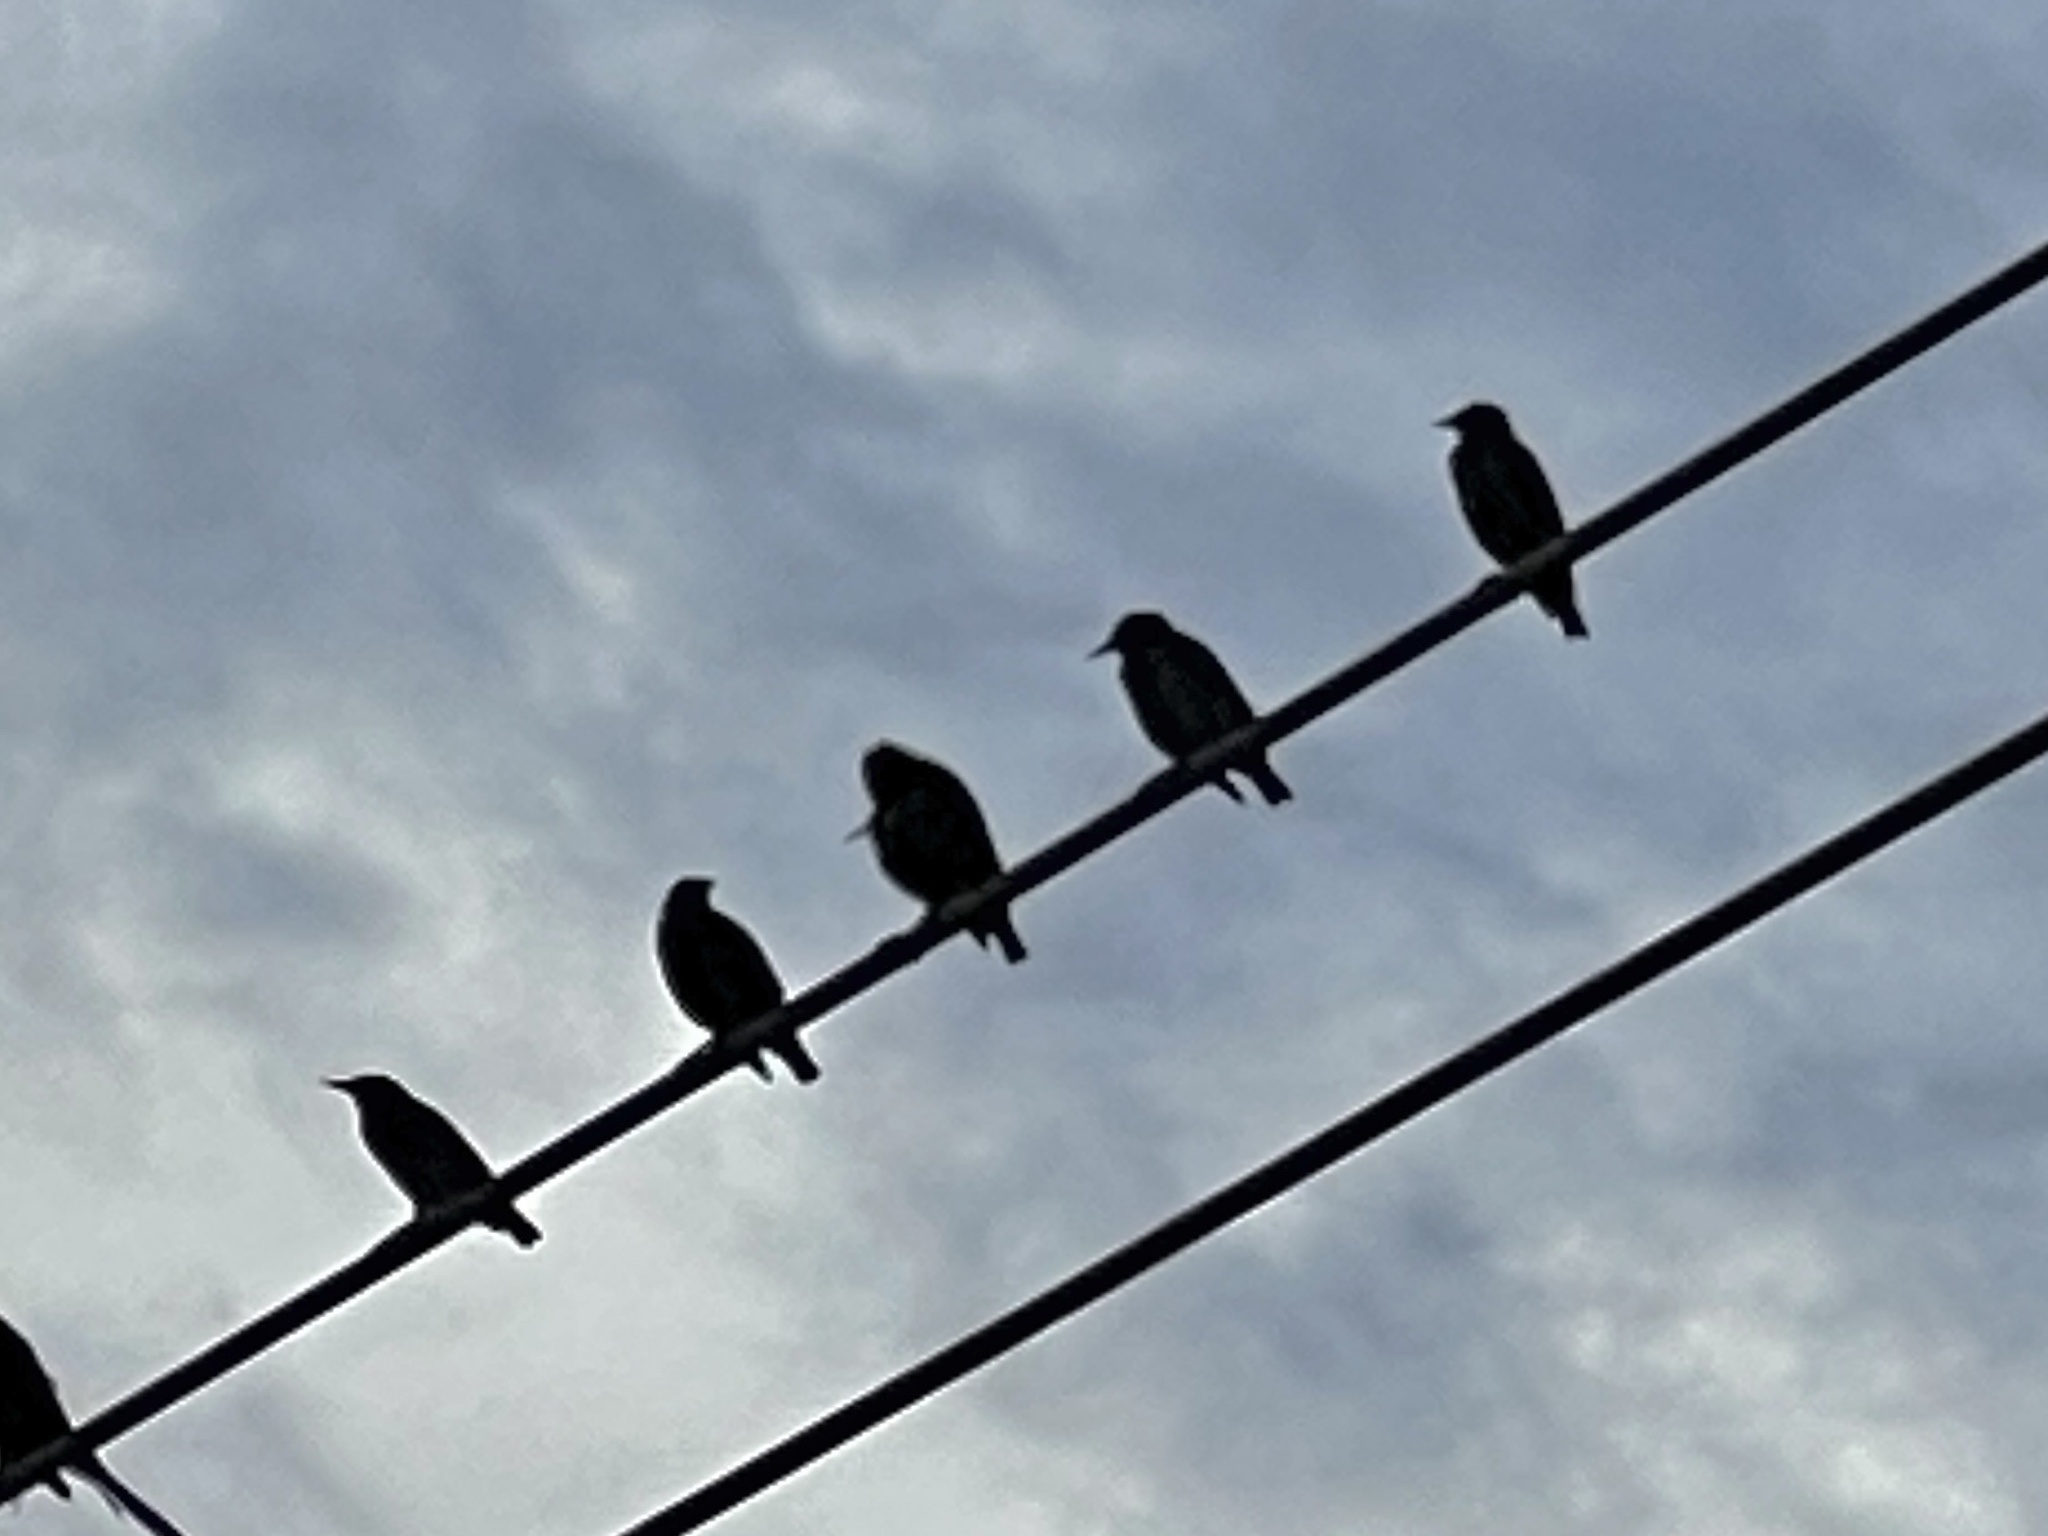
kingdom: Animalia
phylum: Chordata
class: Aves
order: Passeriformes
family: Sturnidae
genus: Sturnus
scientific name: Sturnus vulgaris
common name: Common starling
